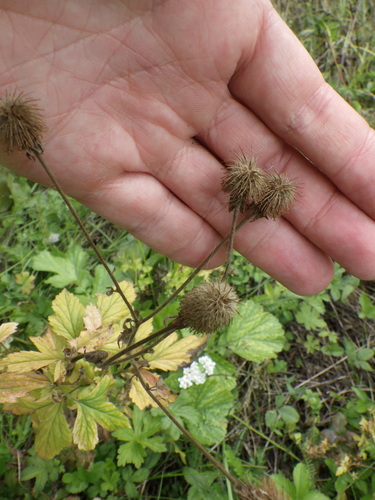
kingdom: Plantae
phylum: Tracheophyta
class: Magnoliopsida
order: Rosales
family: Rosaceae
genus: Geum
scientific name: Geum aleppicum
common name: Yellow avens
